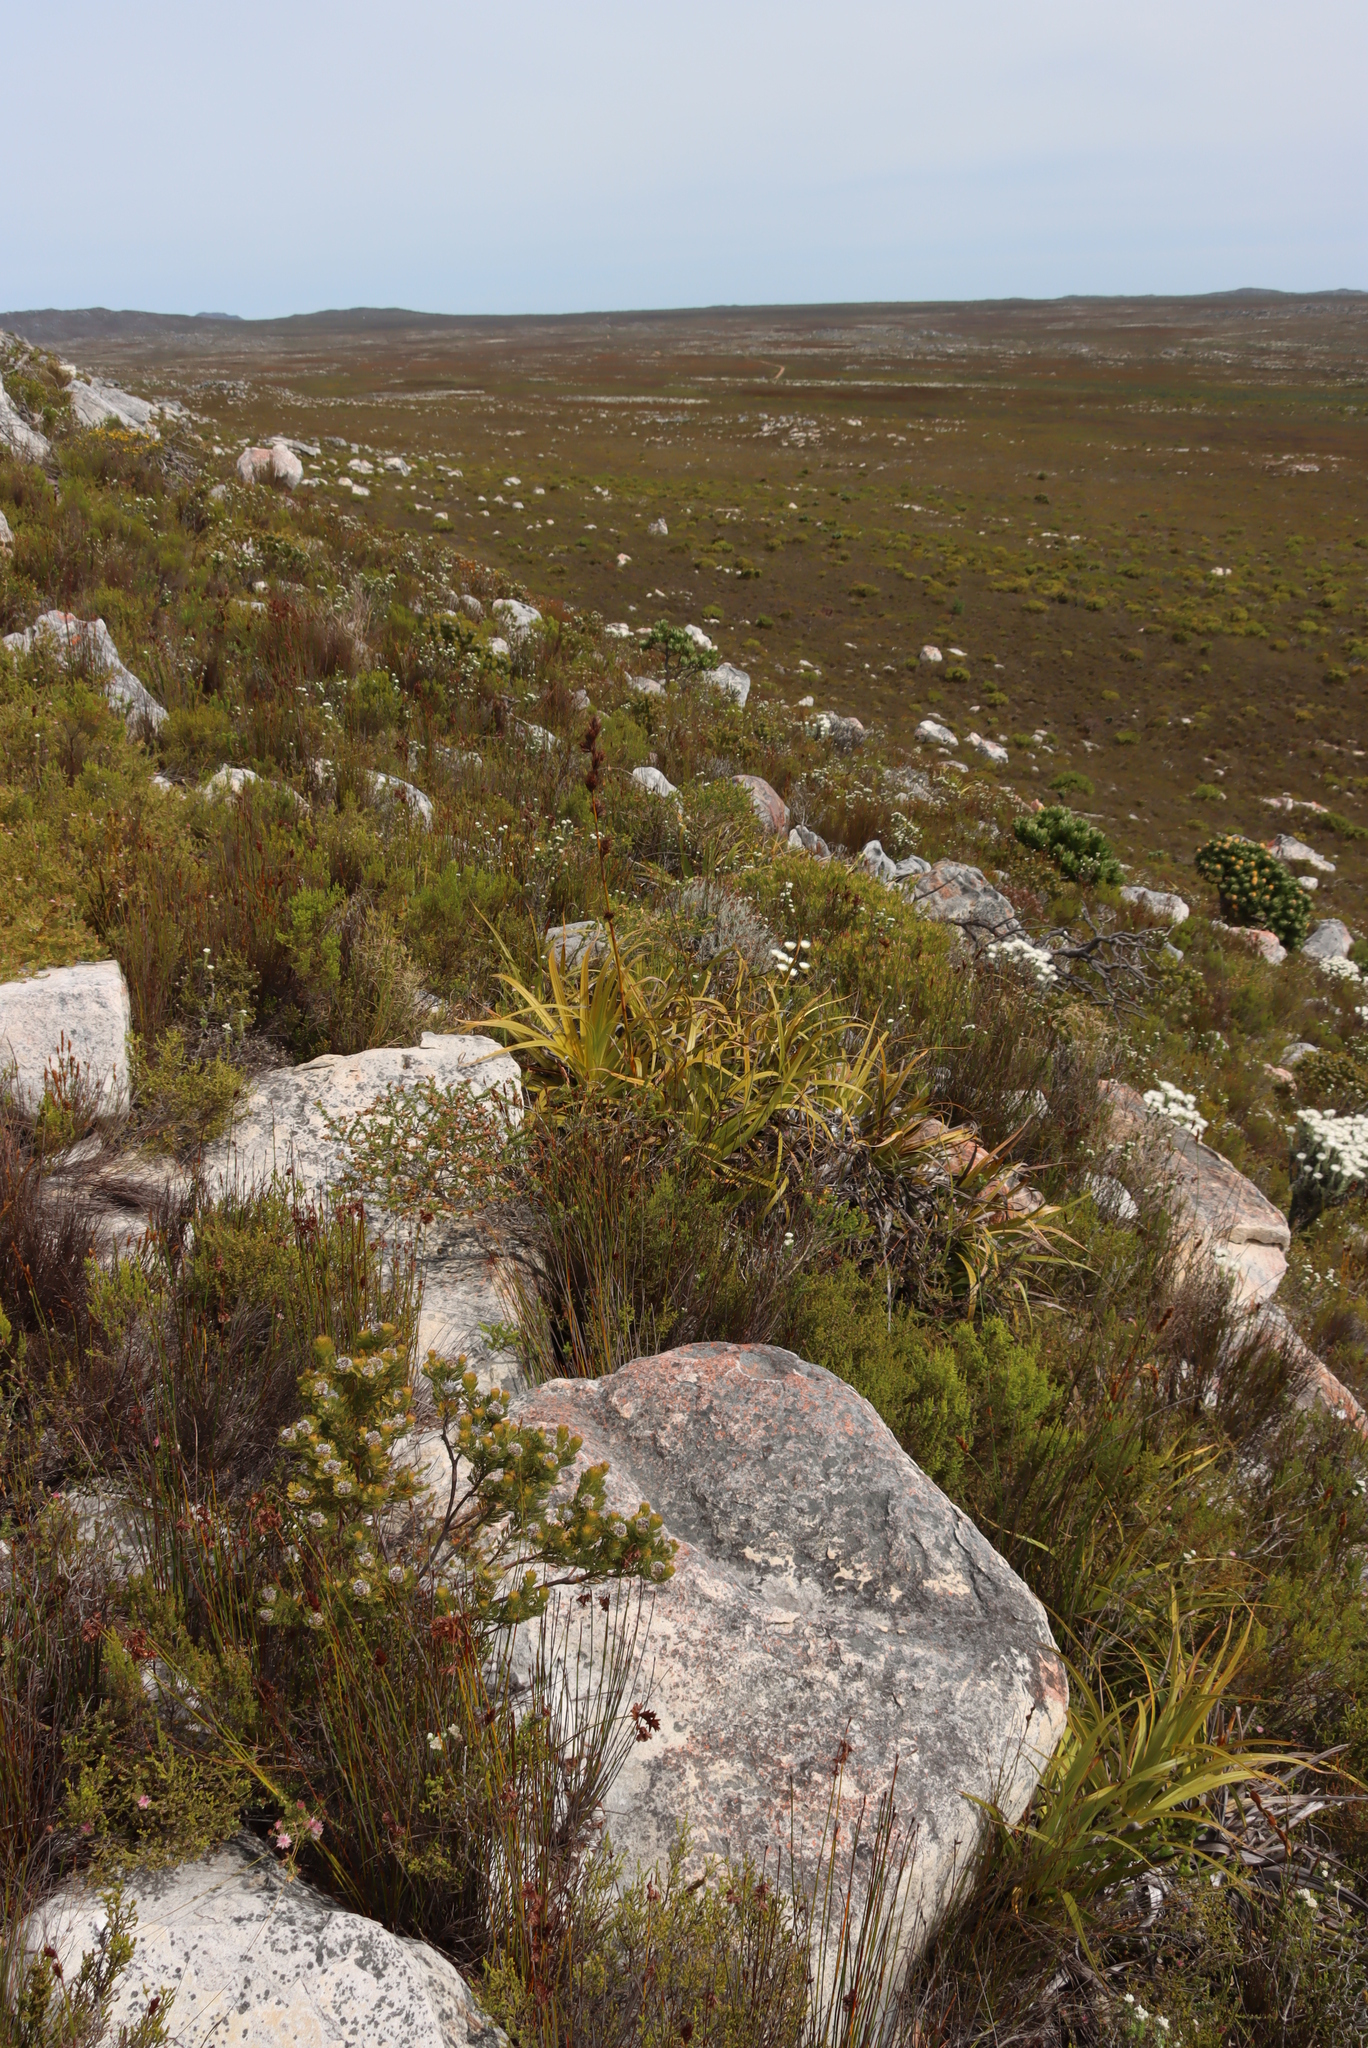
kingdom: Plantae
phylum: Tracheophyta
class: Liliopsida
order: Poales
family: Cyperaceae
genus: Tetraria
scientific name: Tetraria thermalis
